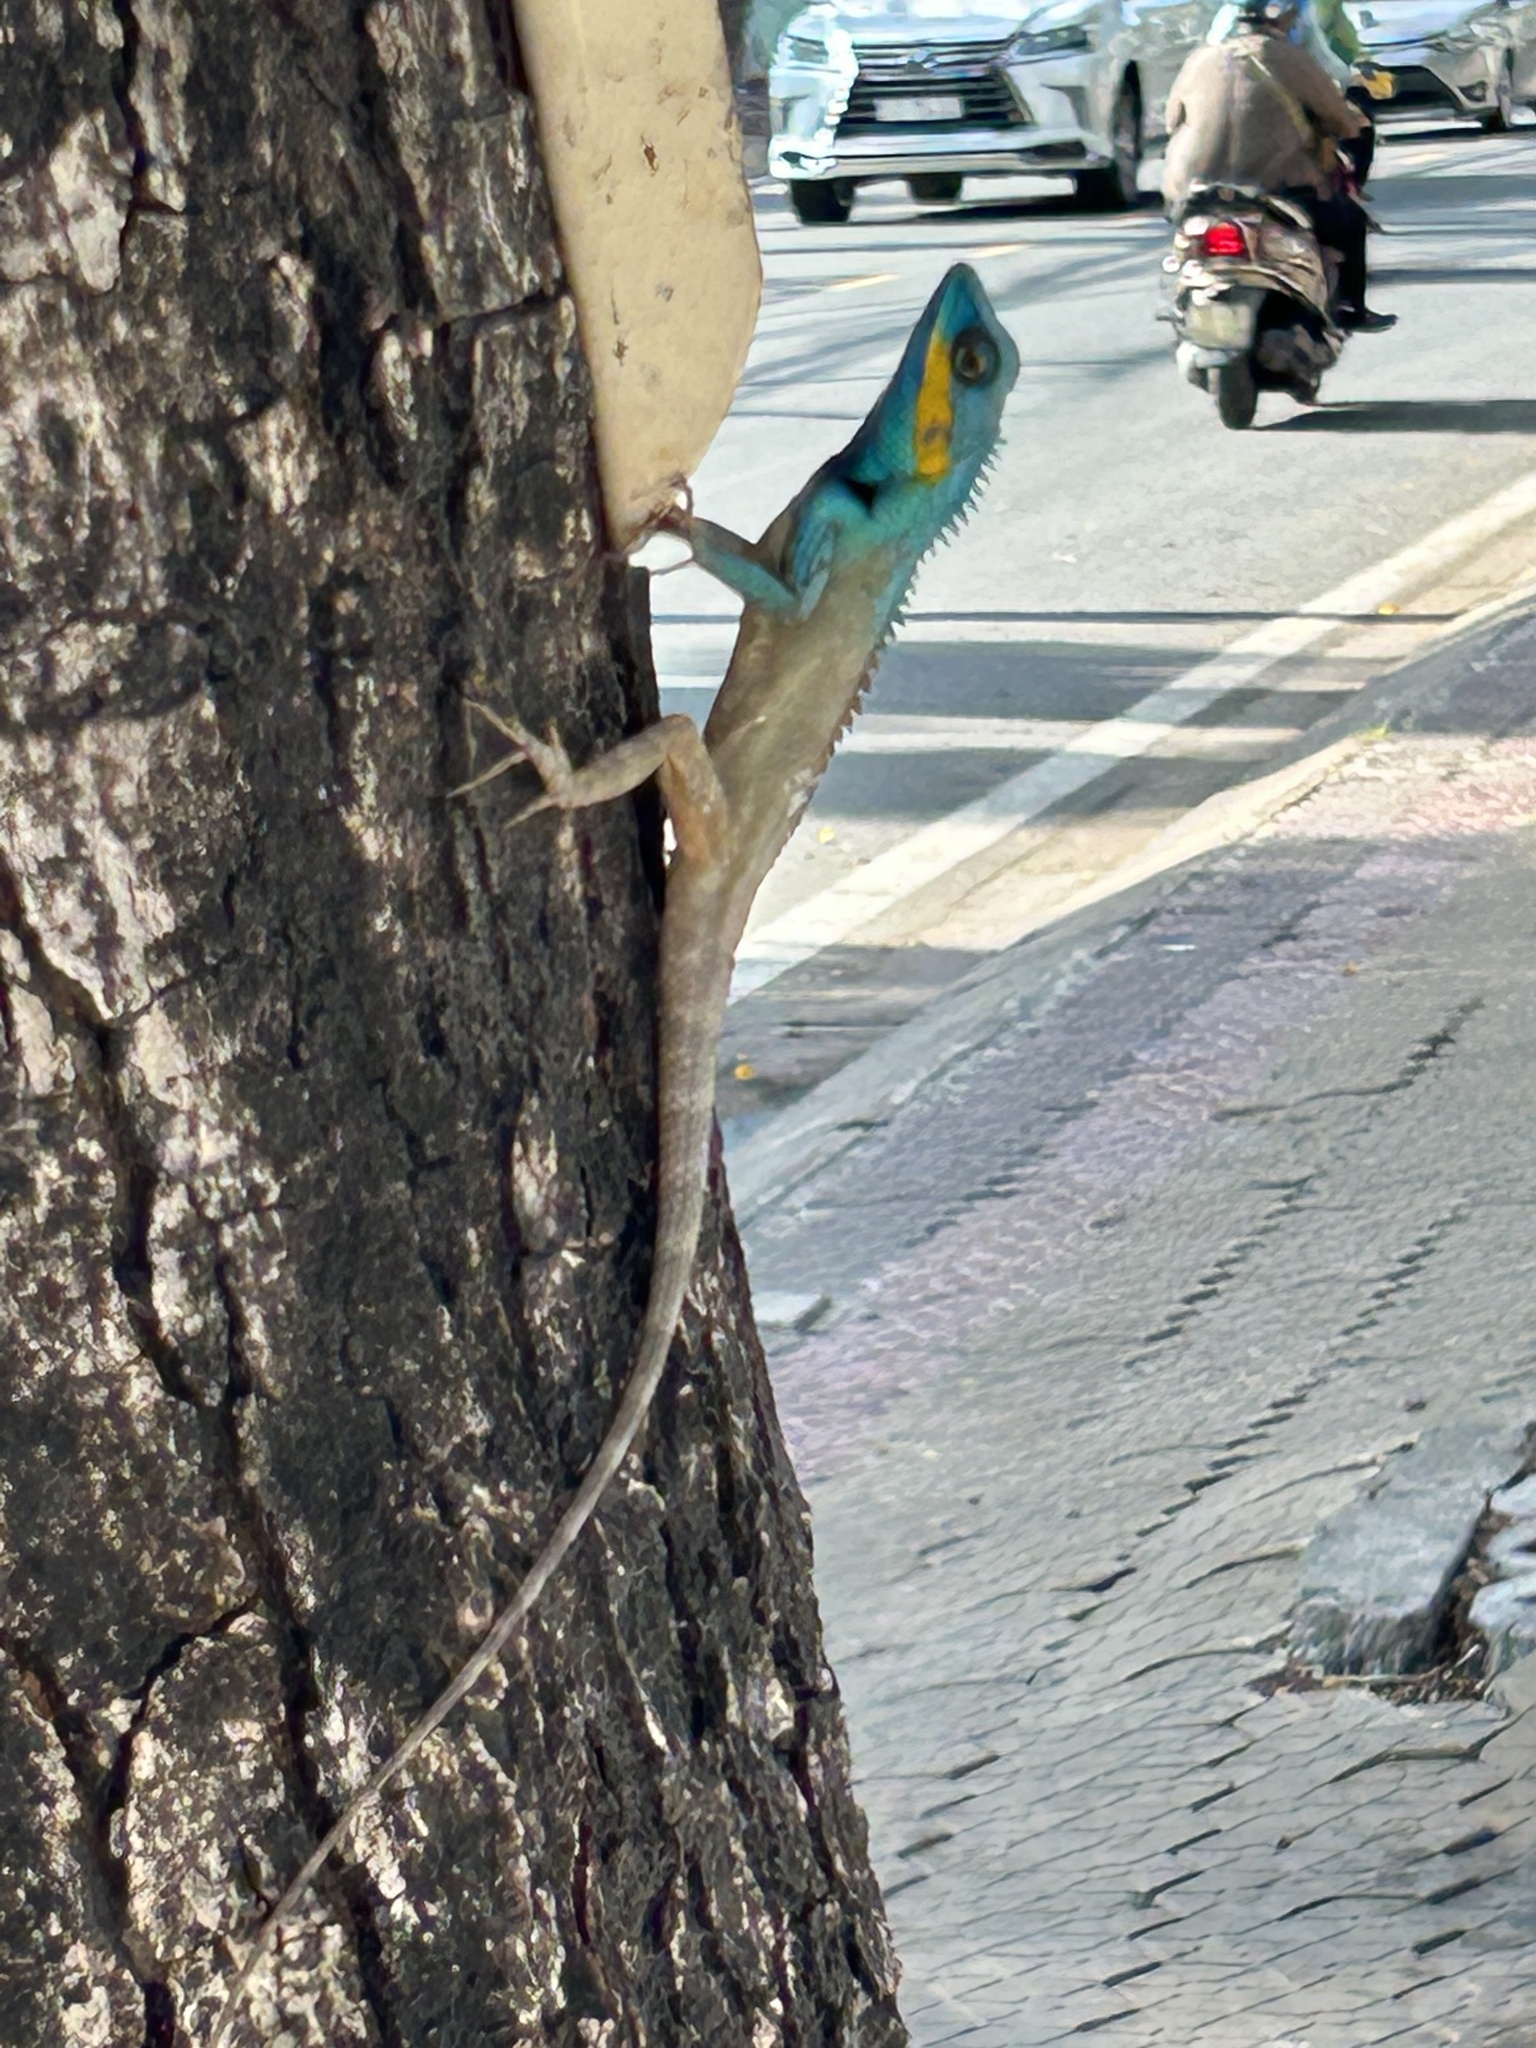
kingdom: Animalia
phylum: Chordata
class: Squamata
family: Agamidae
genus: Calotes
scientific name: Calotes bachae
